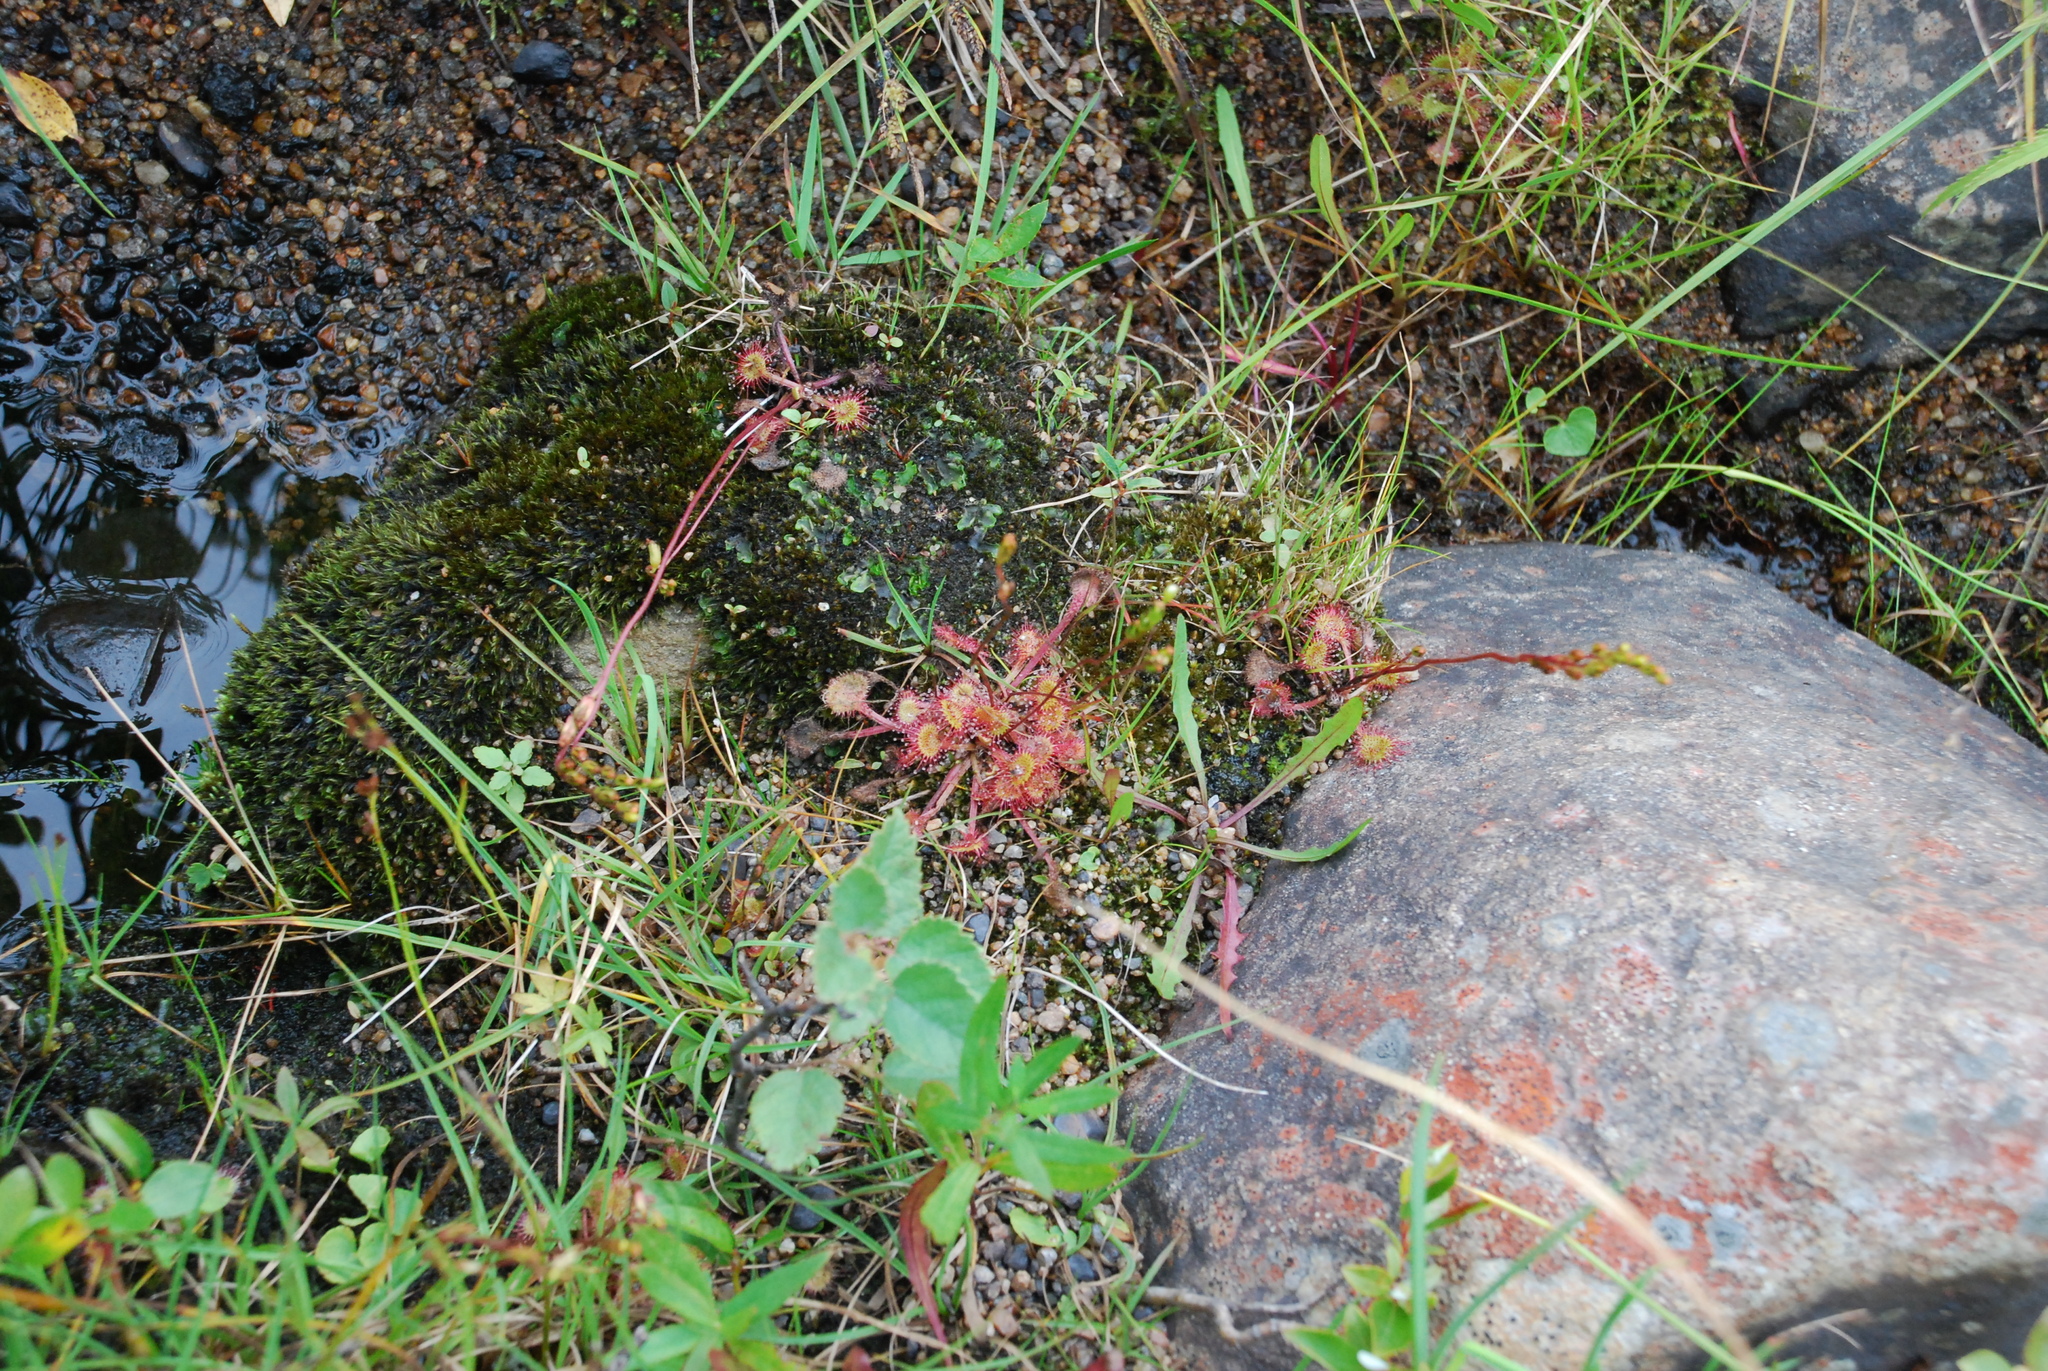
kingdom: Plantae
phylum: Tracheophyta
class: Magnoliopsida
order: Caryophyllales
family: Droseraceae
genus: Drosera
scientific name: Drosera rotundifolia
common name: Round-leaved sundew
